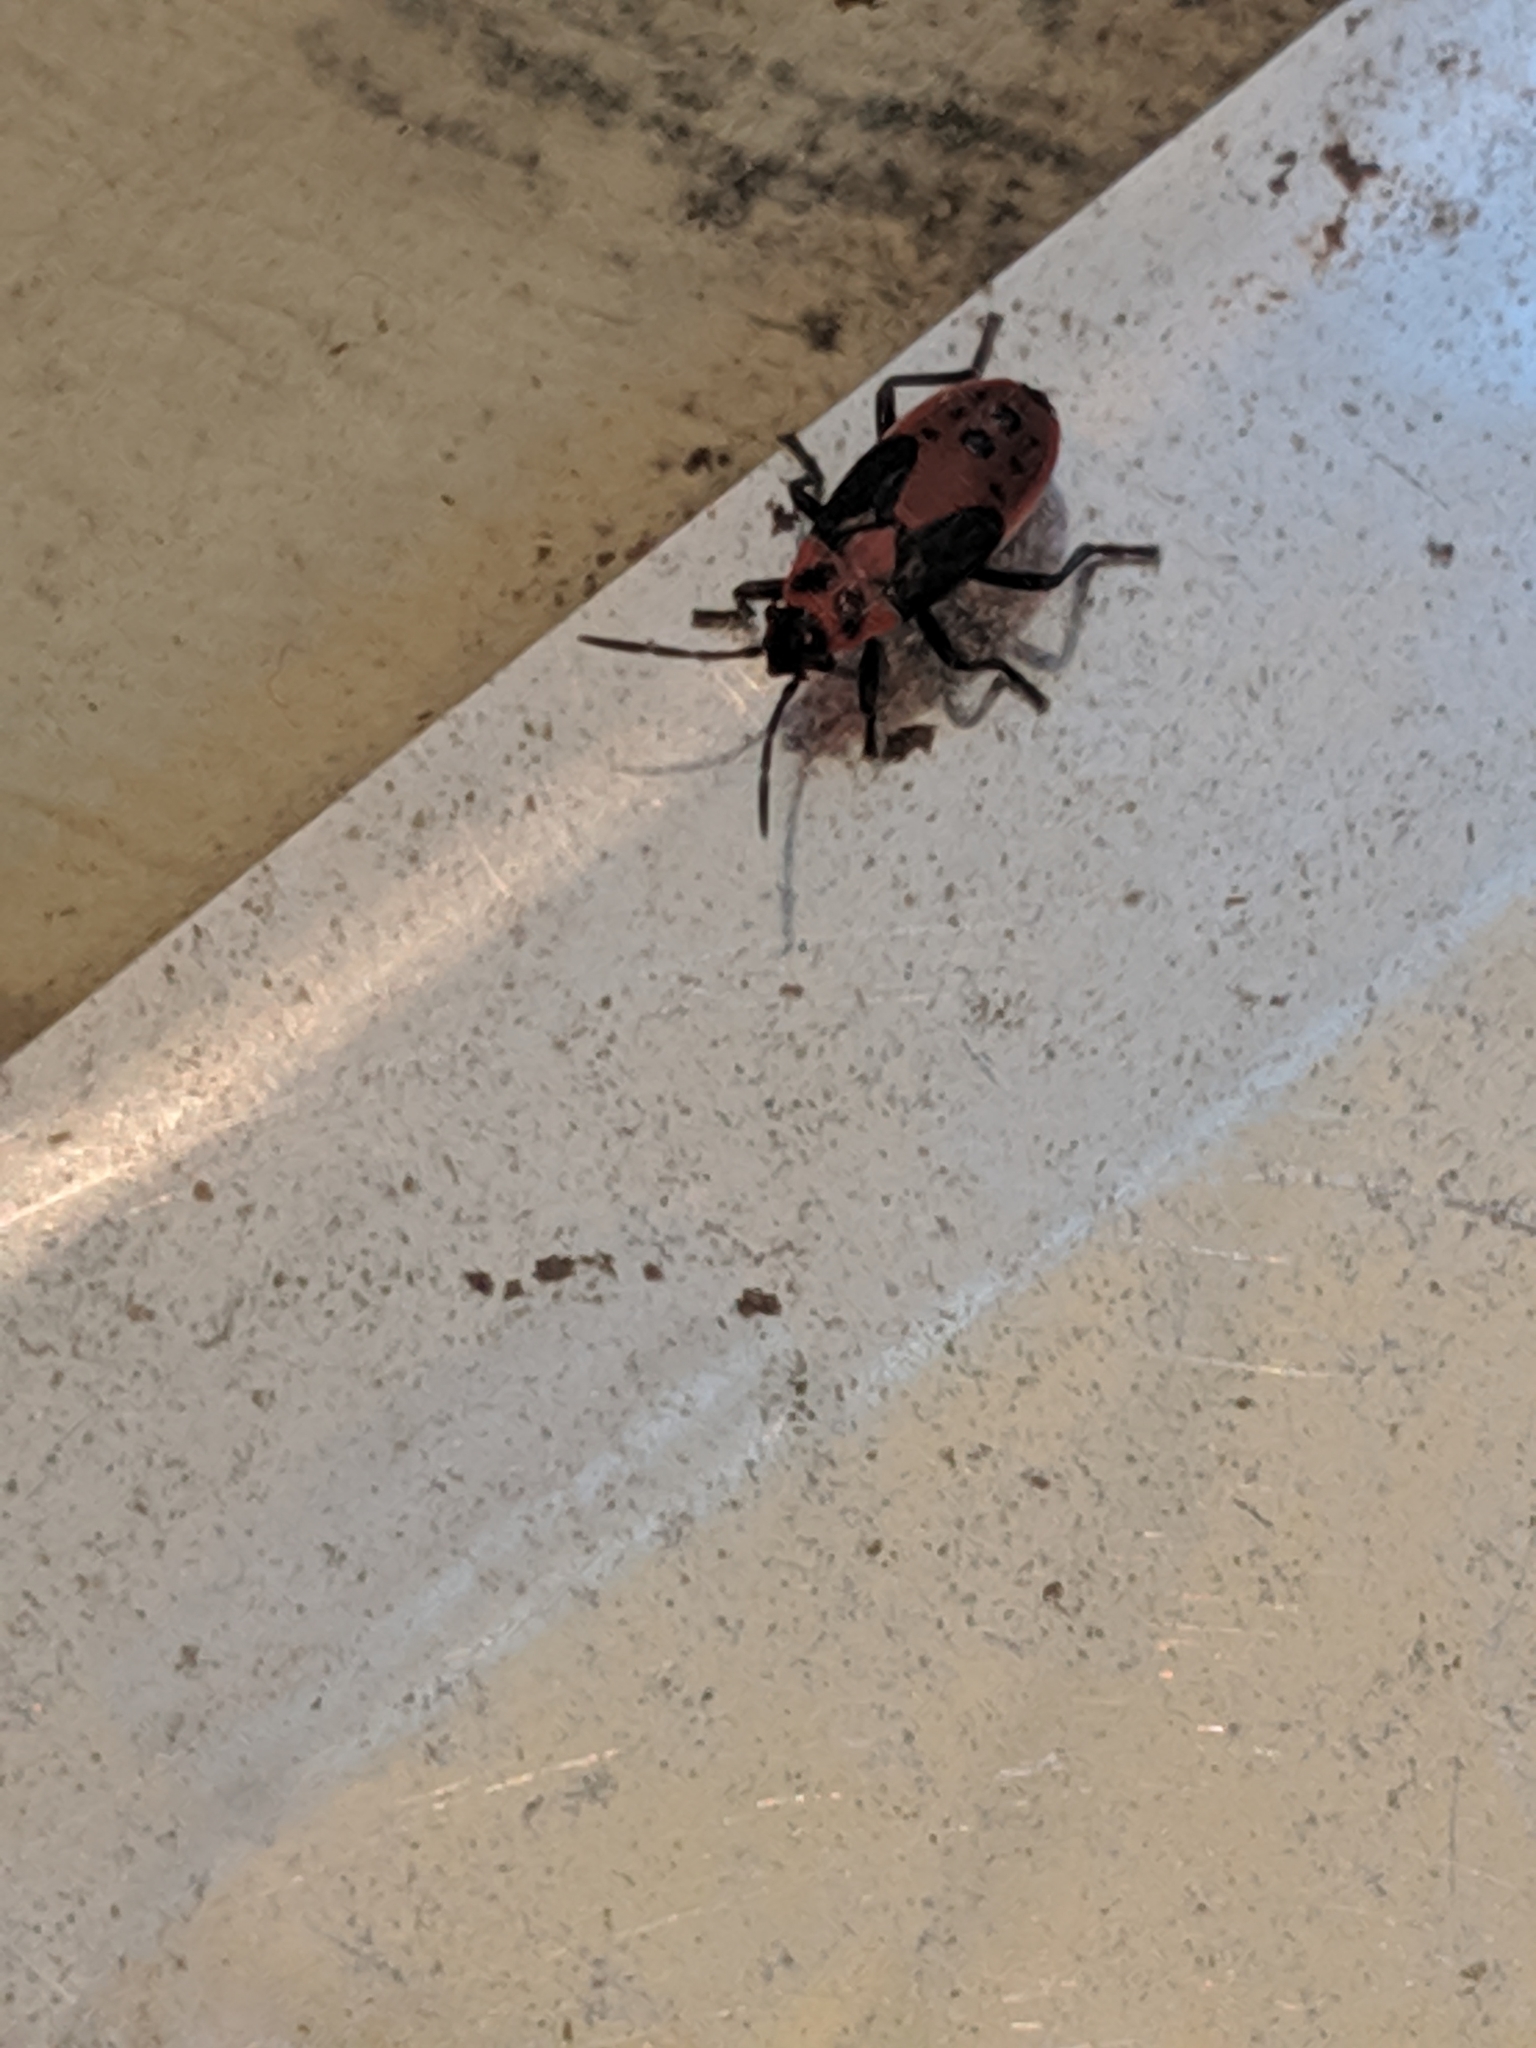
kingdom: Animalia
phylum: Arthropoda
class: Insecta
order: Hemiptera
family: Lygaeidae
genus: Lygaeus
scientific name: Lygaeus kalmii
